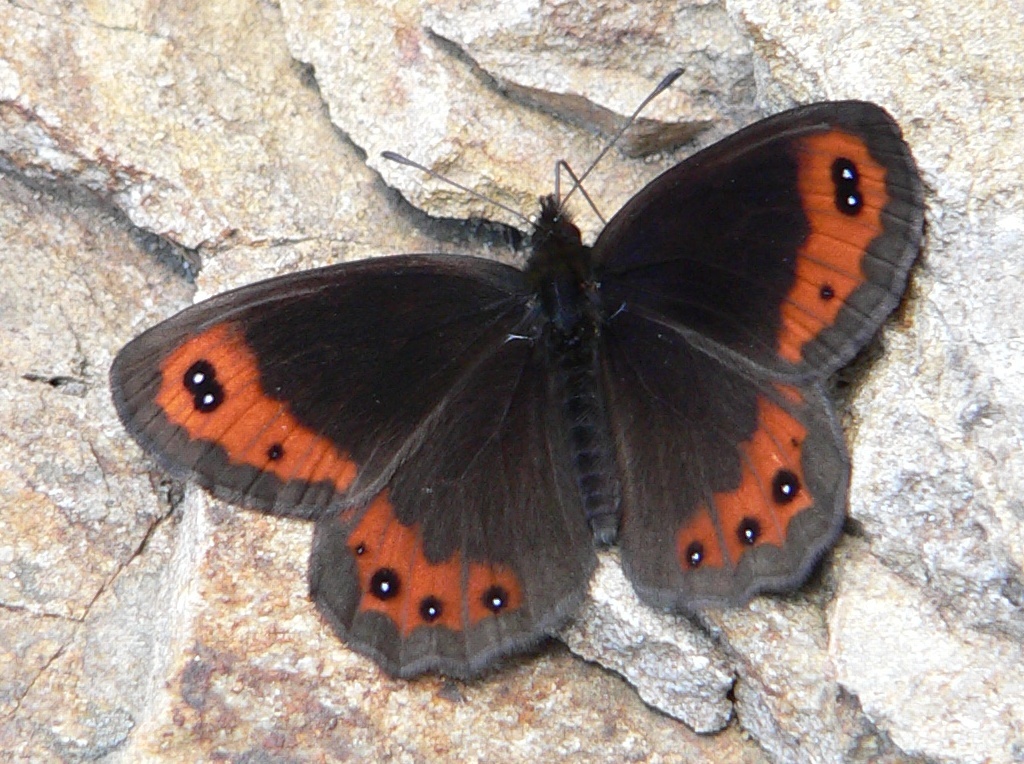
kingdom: Animalia
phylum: Arthropoda
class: Insecta
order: Lepidoptera
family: Nymphalidae
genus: Erebia
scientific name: Erebia montanus
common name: Marbled ringlet
